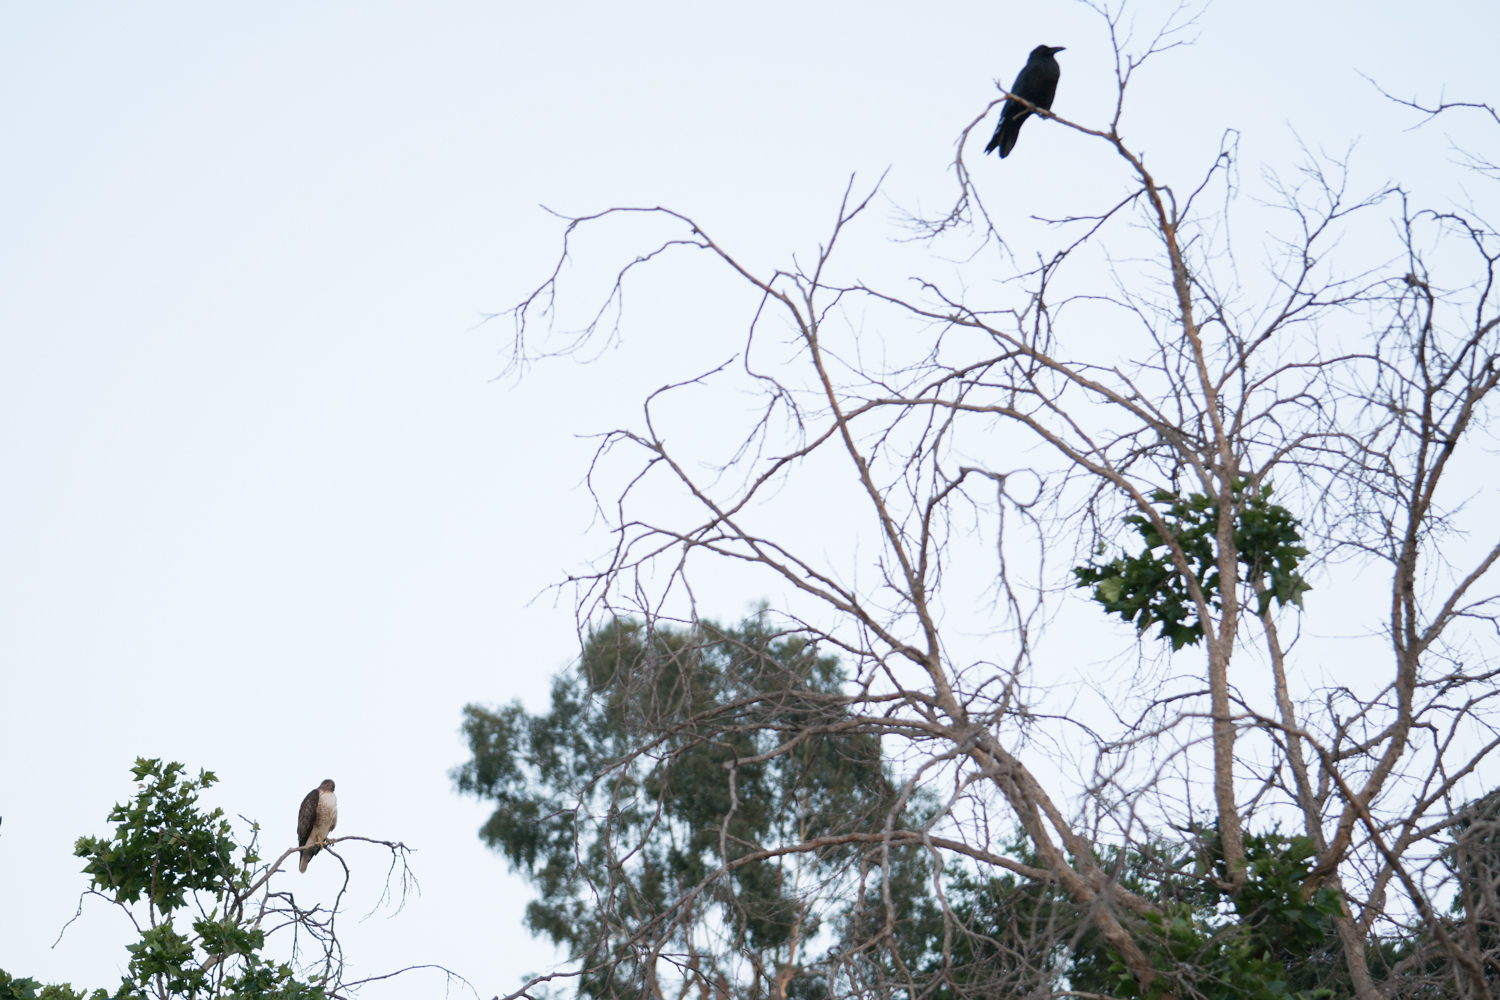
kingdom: Animalia
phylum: Chordata
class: Aves
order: Accipitriformes
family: Accipitridae
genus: Buteo
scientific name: Buteo jamaicensis
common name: Red-tailed hawk
